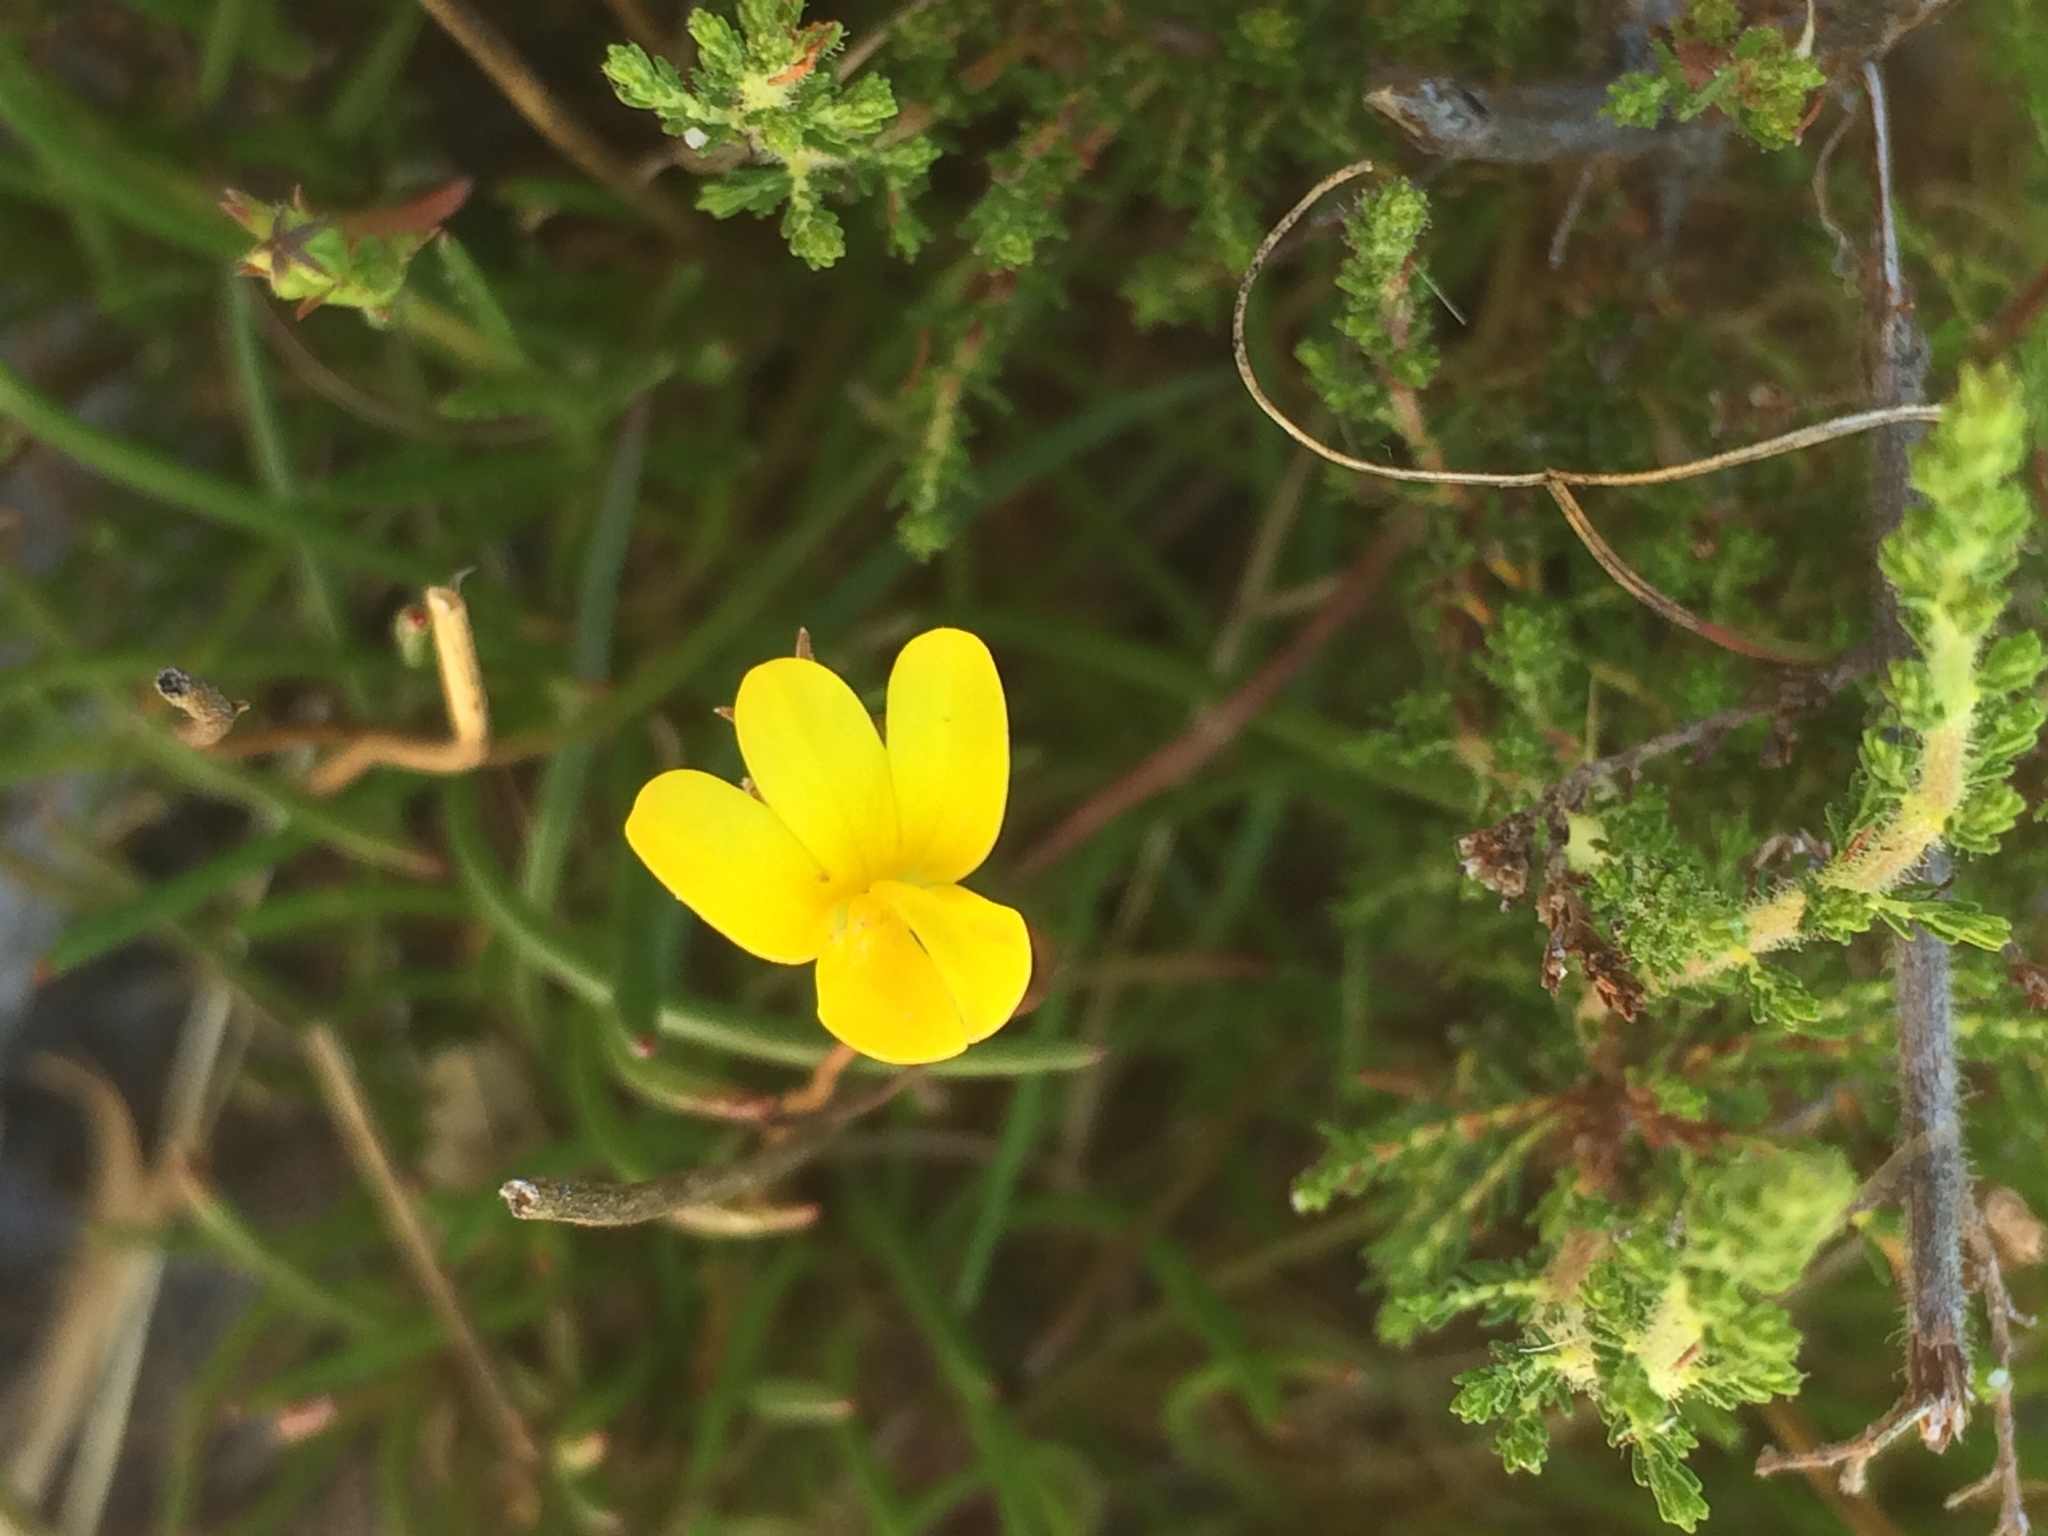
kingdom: Plantae
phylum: Tracheophyta
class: Magnoliopsida
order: Asterales
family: Campanulaceae
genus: Monopsis
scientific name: Monopsis lutea
